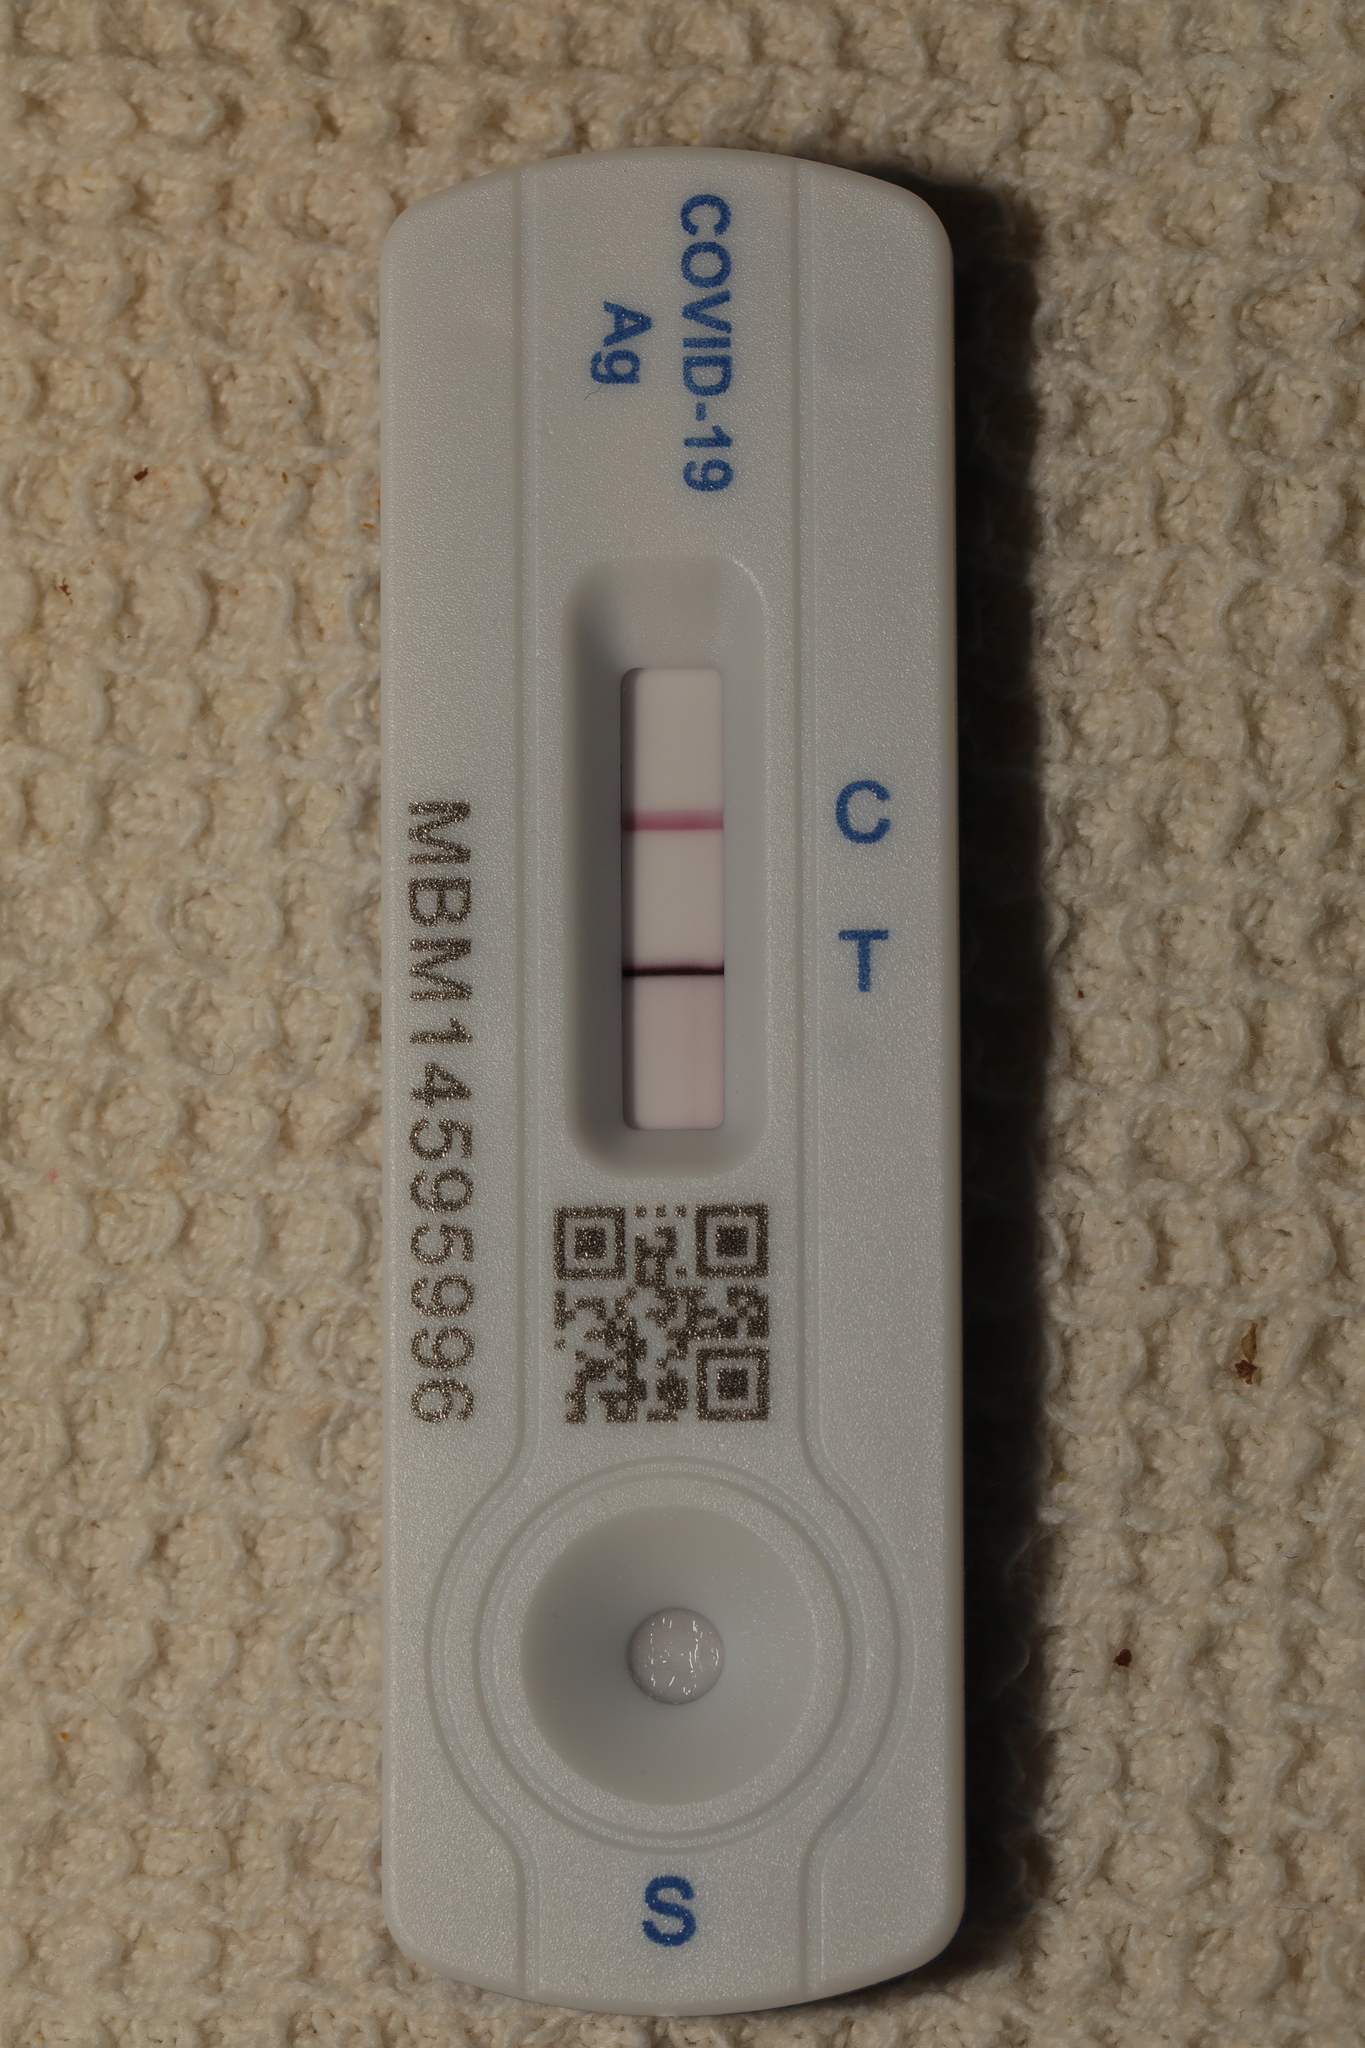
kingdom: Viruses
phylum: Pisuviricota
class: Pisoniviricetes
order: Nidovirales
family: Coronaviridae
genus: Betacoronavirus
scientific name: Betacoronavirus Severe acute respiratory syndrome-related coronavirus
